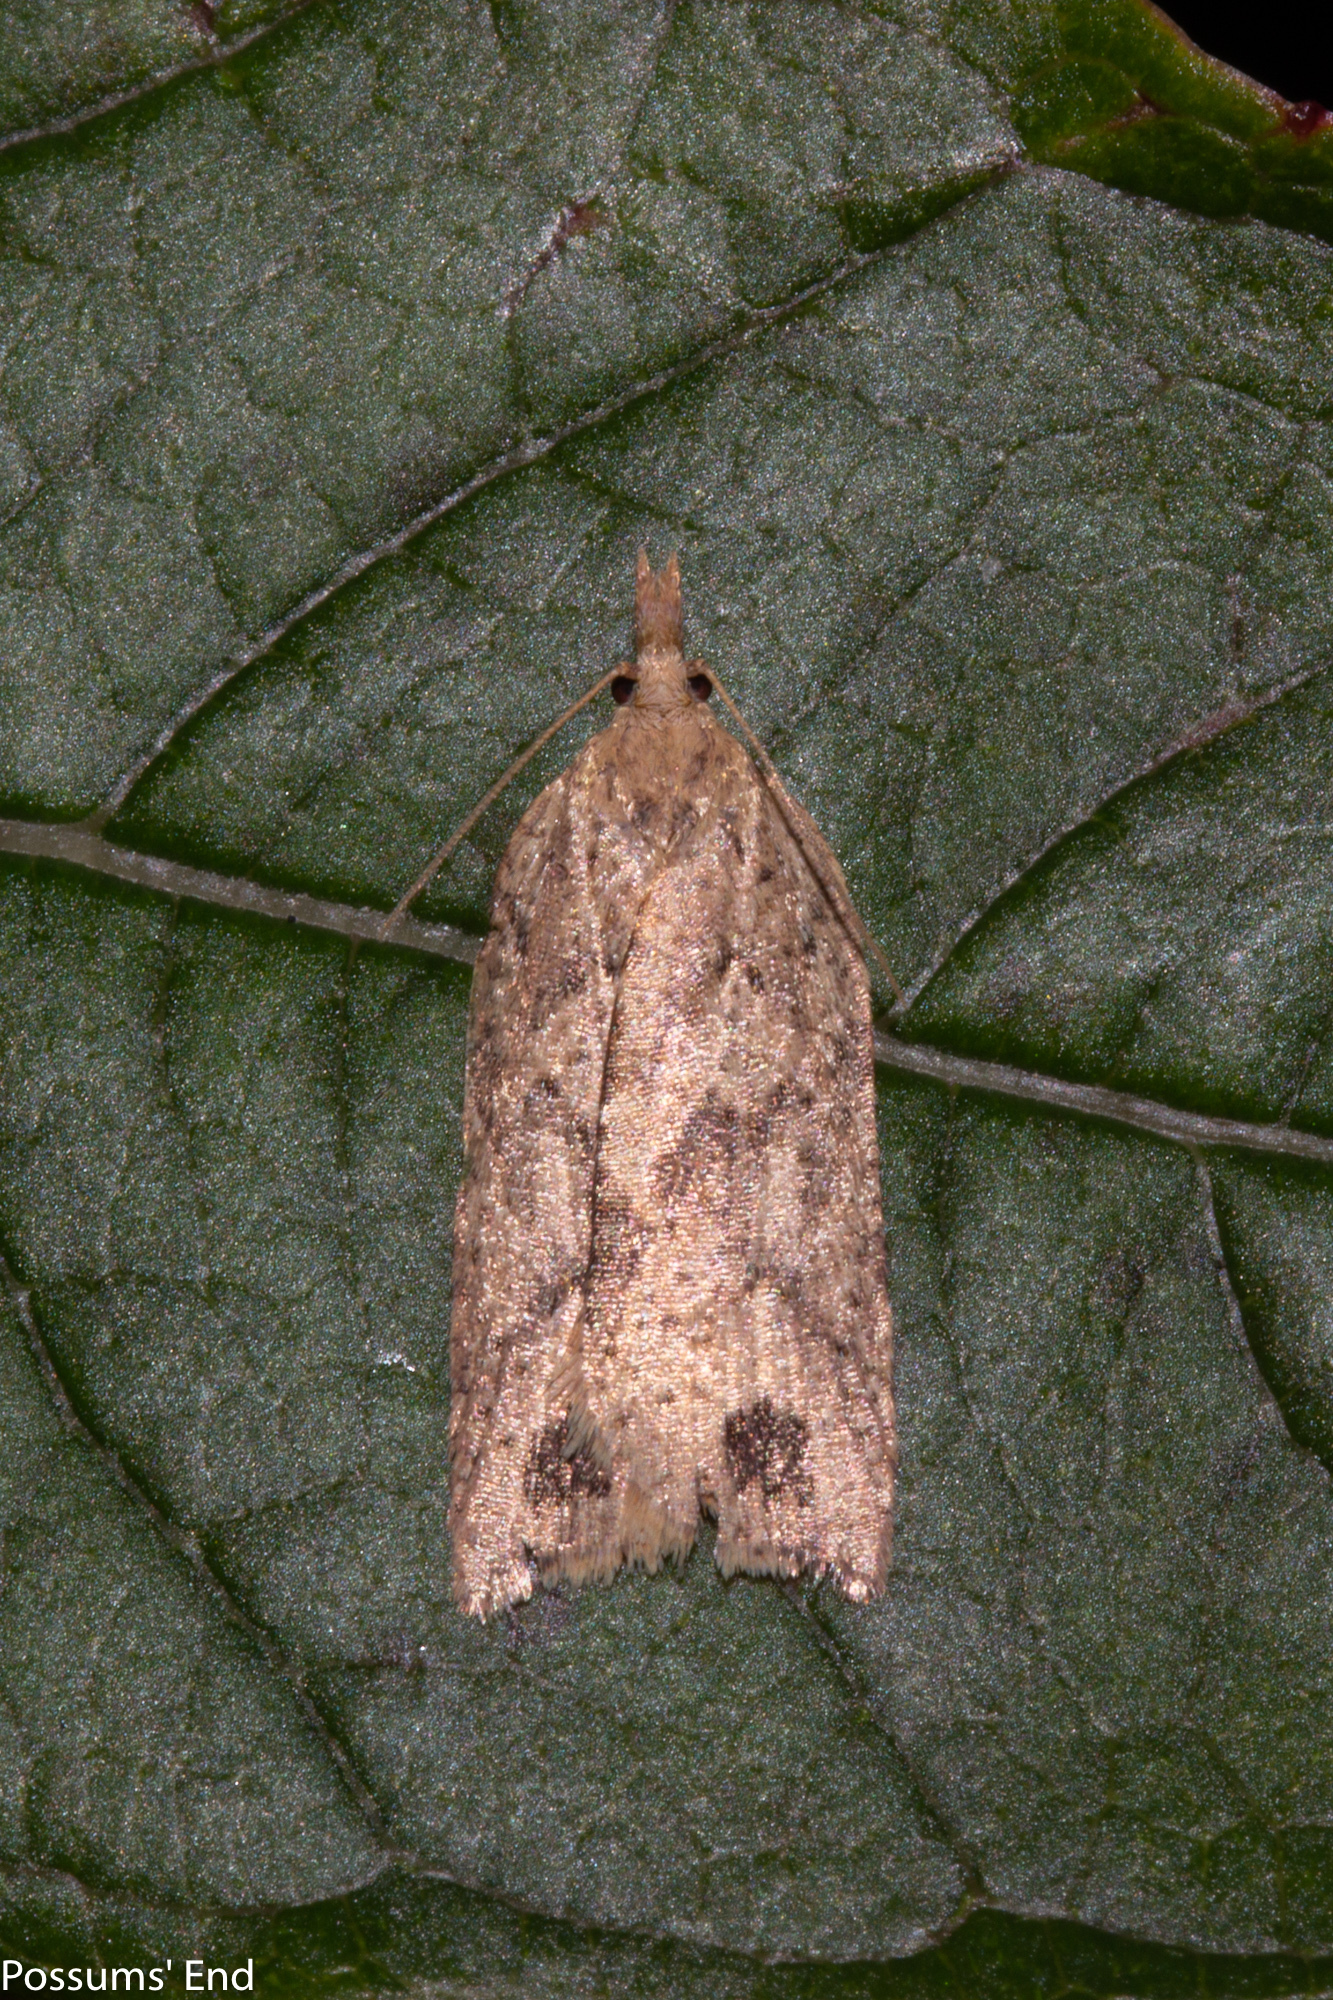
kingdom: Animalia
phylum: Arthropoda
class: Insecta
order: Lepidoptera
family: Tortricidae
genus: Planotortrix
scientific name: Planotortrix notophaea
